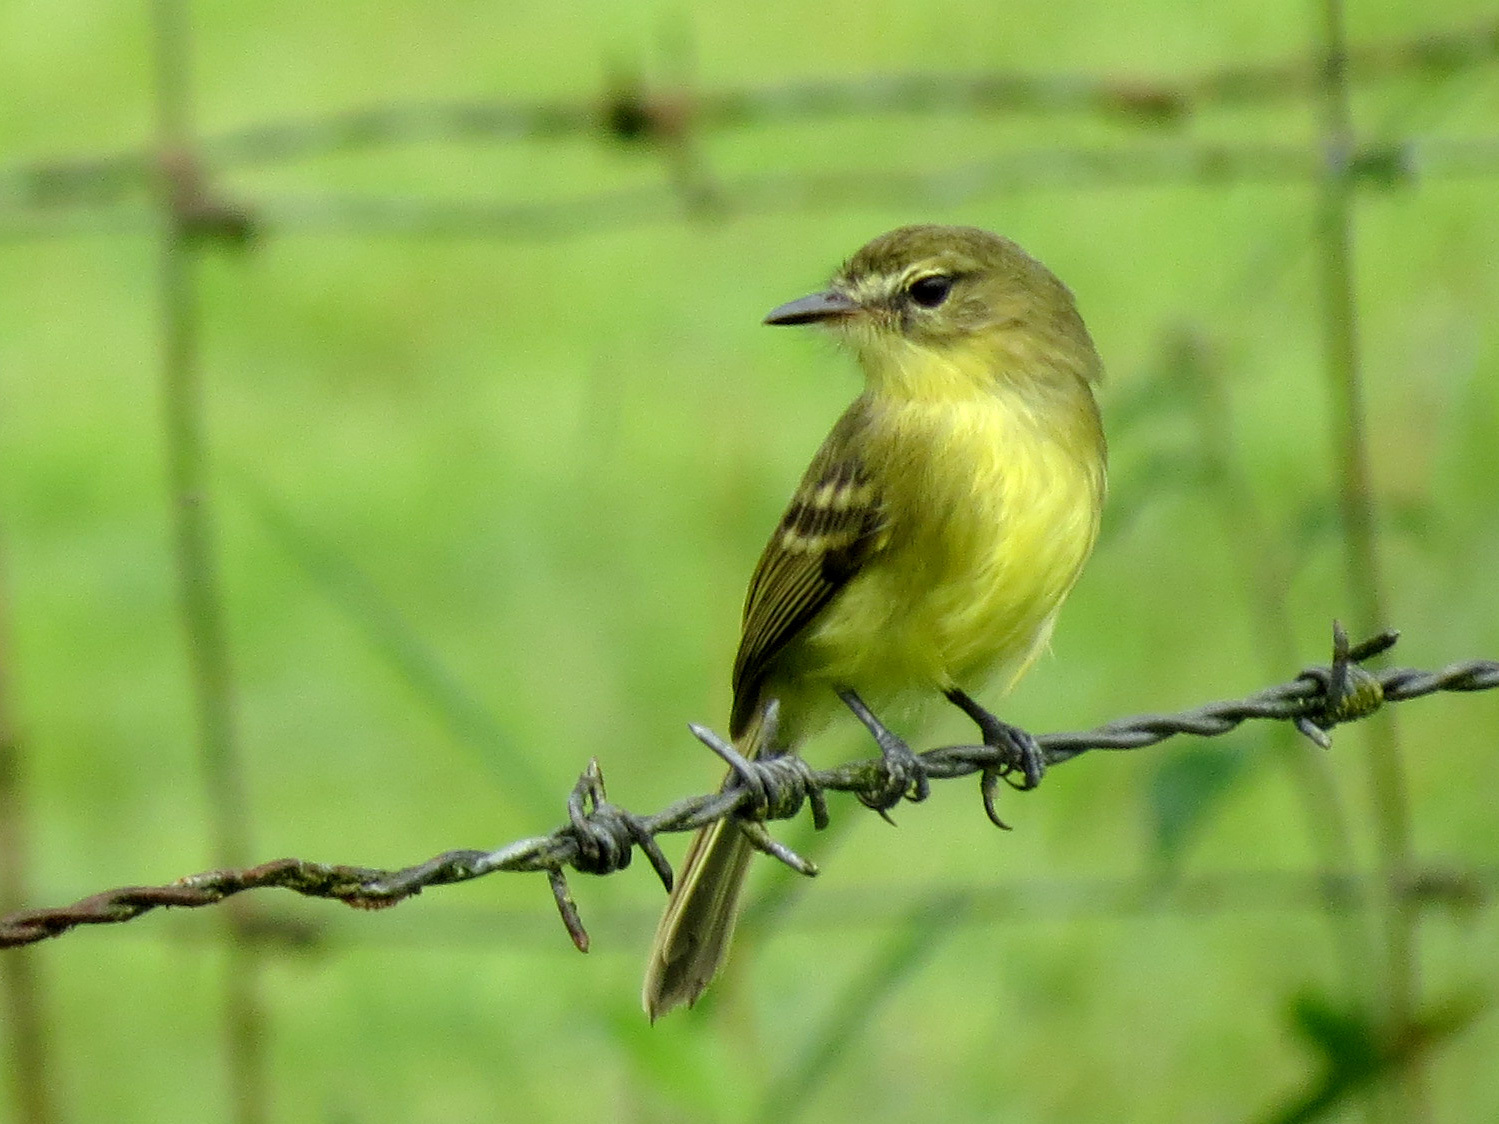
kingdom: Animalia
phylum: Chordata
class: Aves
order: Passeriformes
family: Tyrannidae
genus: Capsiempis
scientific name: Capsiempis flaveola
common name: Yellow tyrannulet
